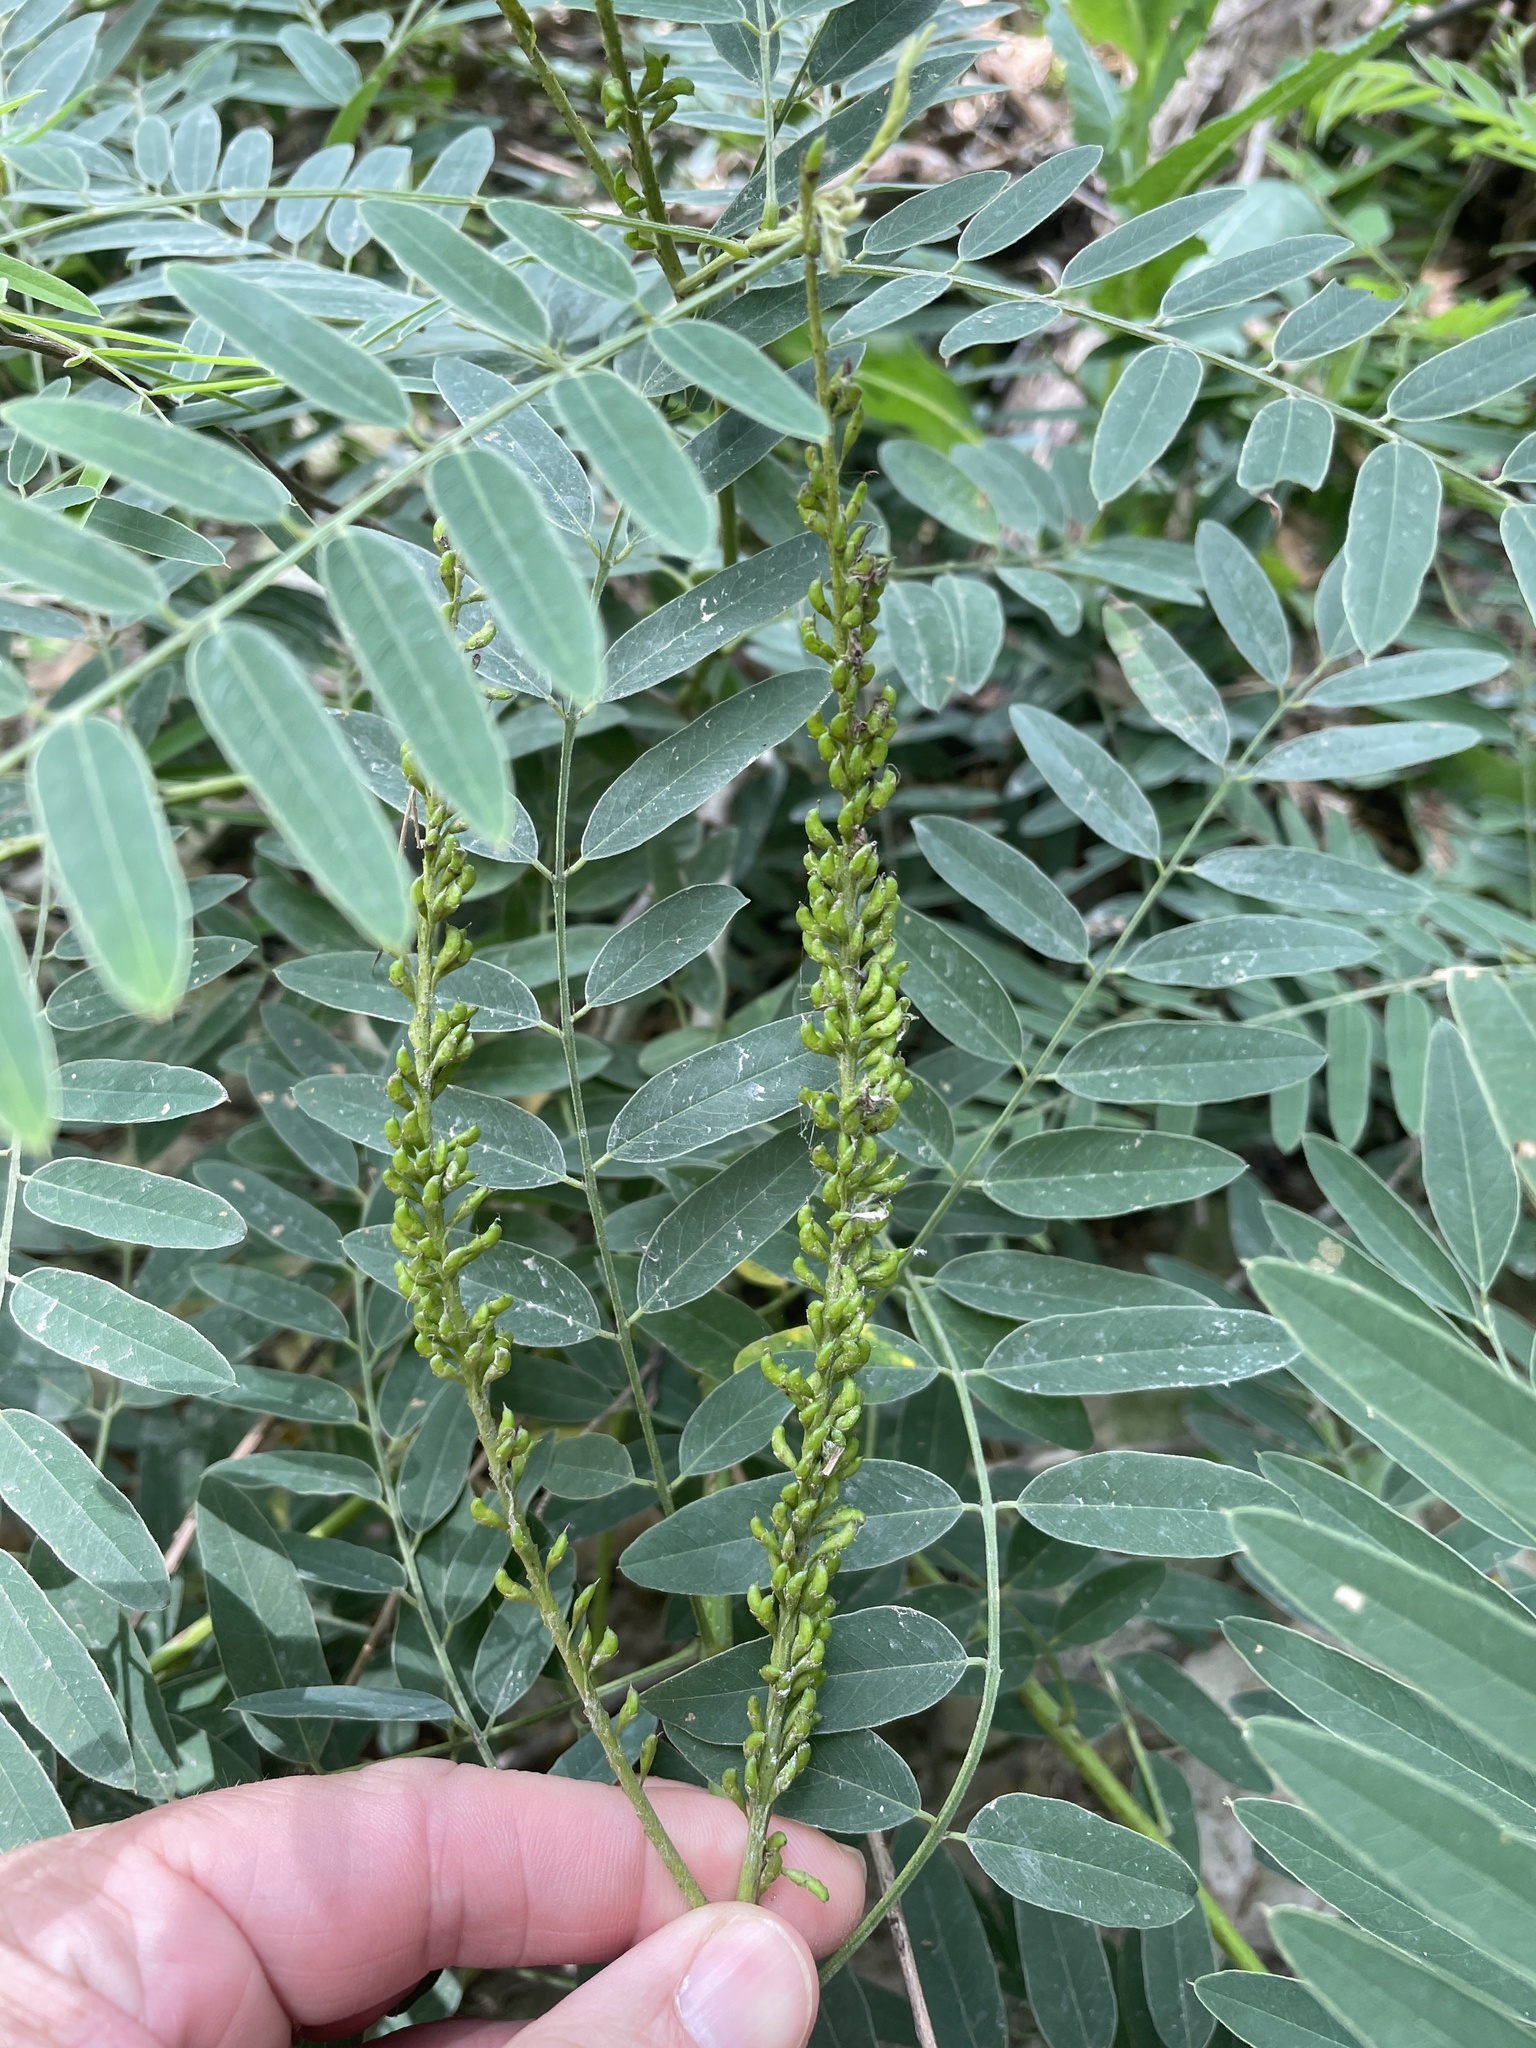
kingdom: Plantae
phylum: Tracheophyta
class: Magnoliopsida
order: Fabales
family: Fabaceae
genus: Amorpha
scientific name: Amorpha fruticosa
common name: False indigo
